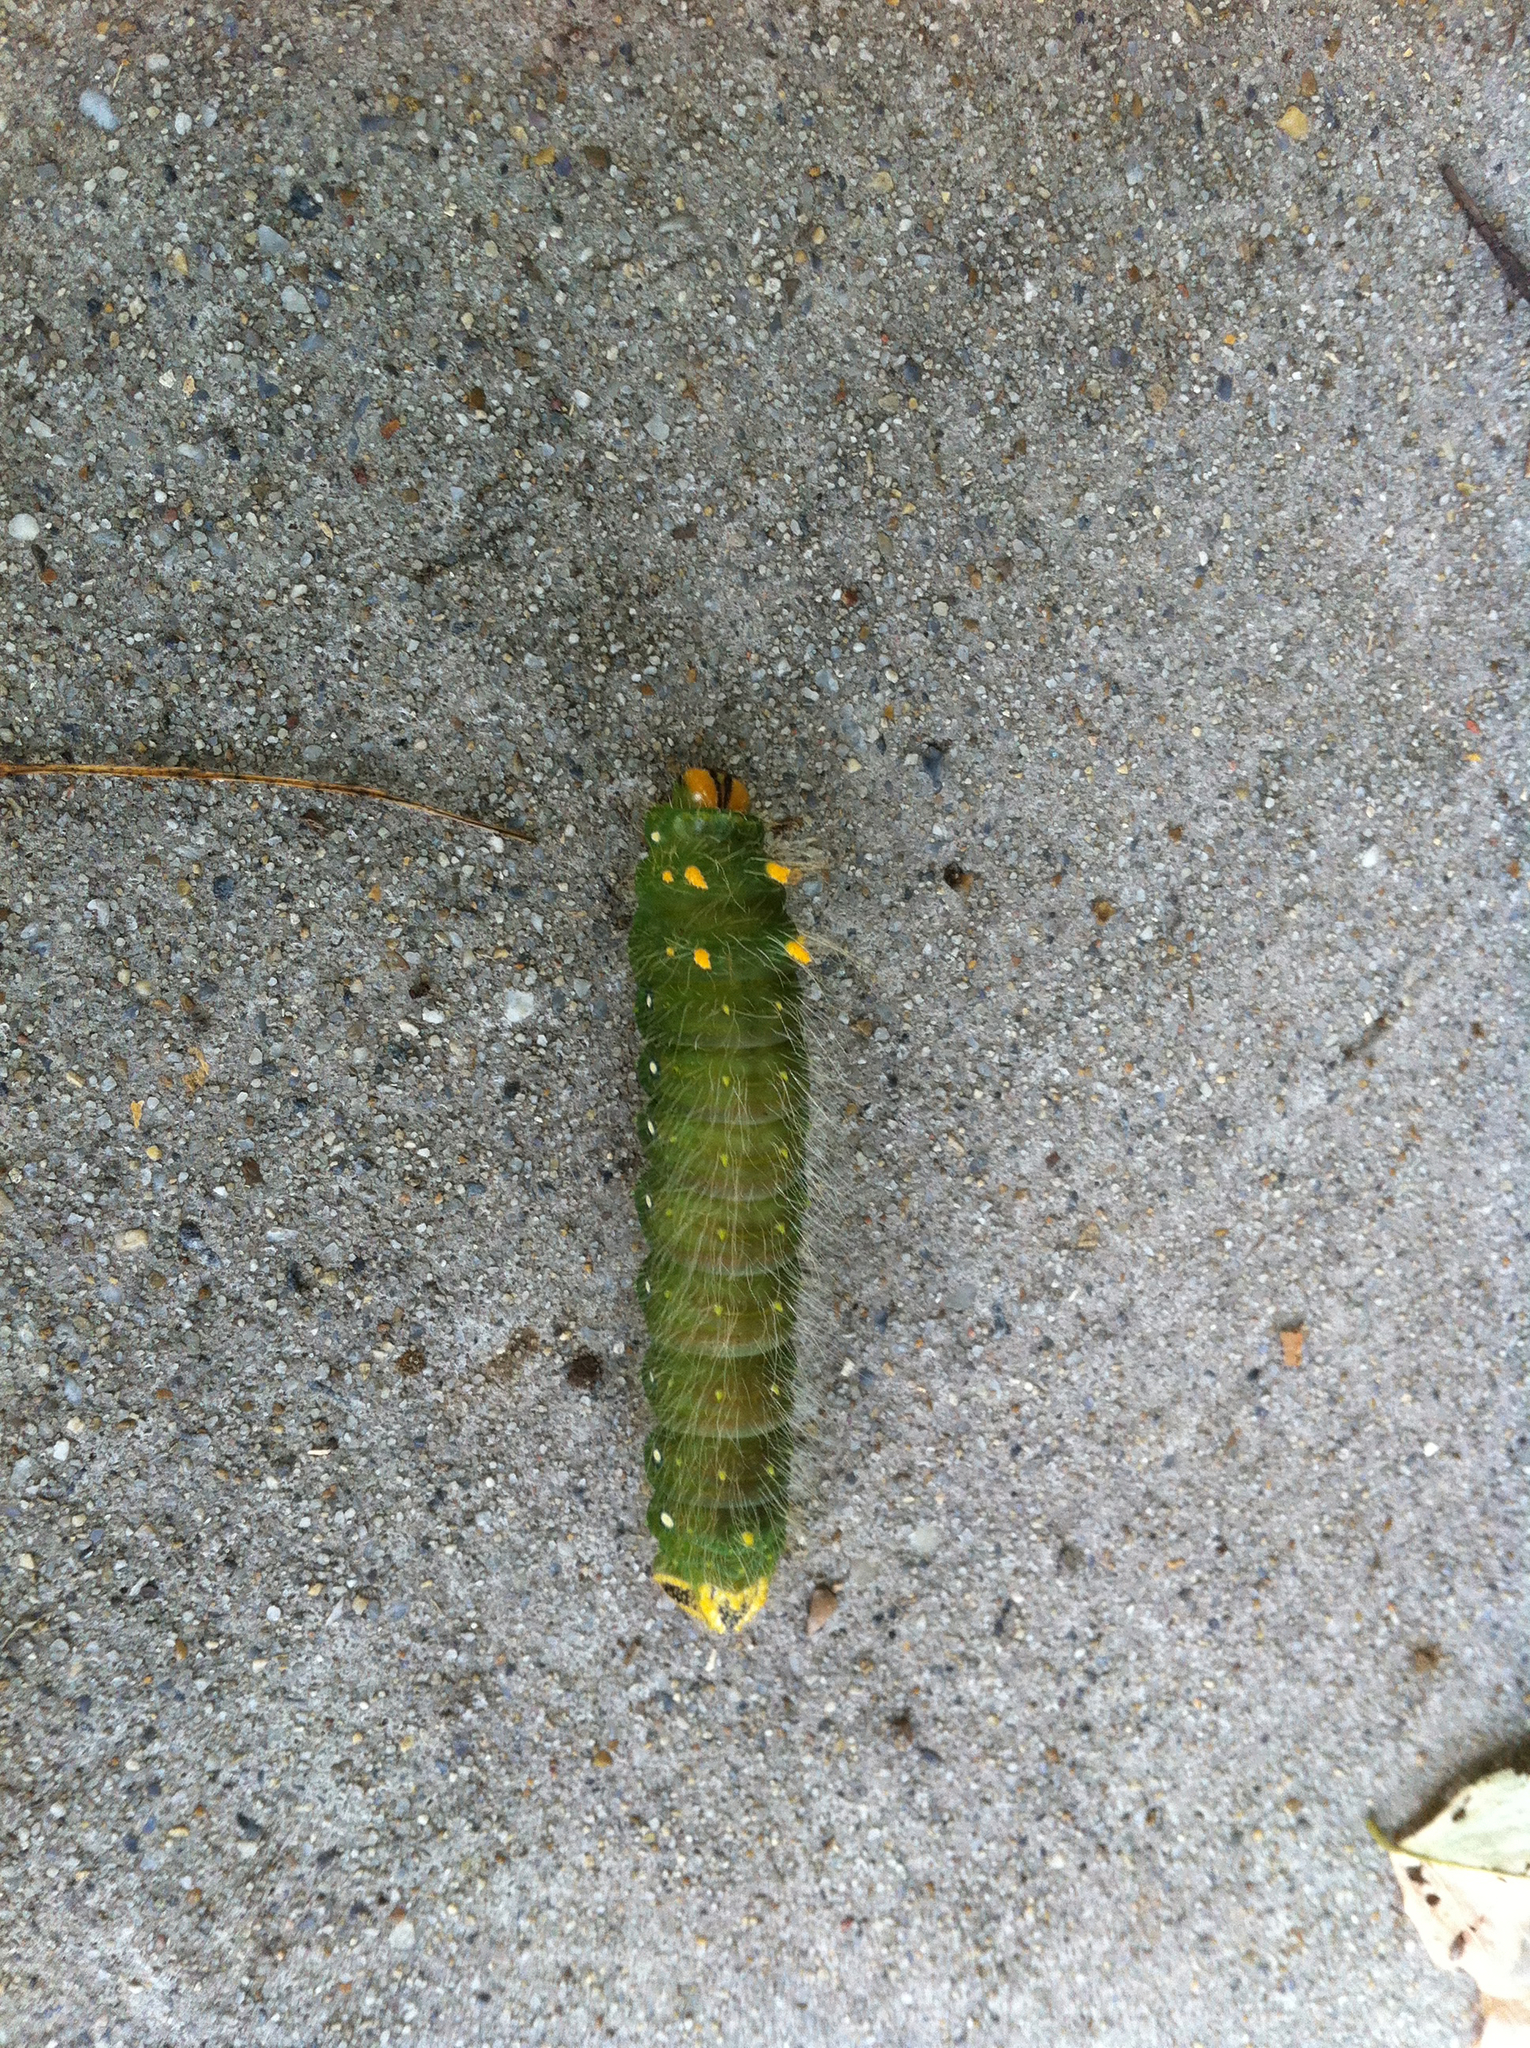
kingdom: Animalia
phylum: Arthropoda
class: Insecta
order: Lepidoptera
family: Saturniidae
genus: Eacles
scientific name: Eacles imperialis
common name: Imperial moth
